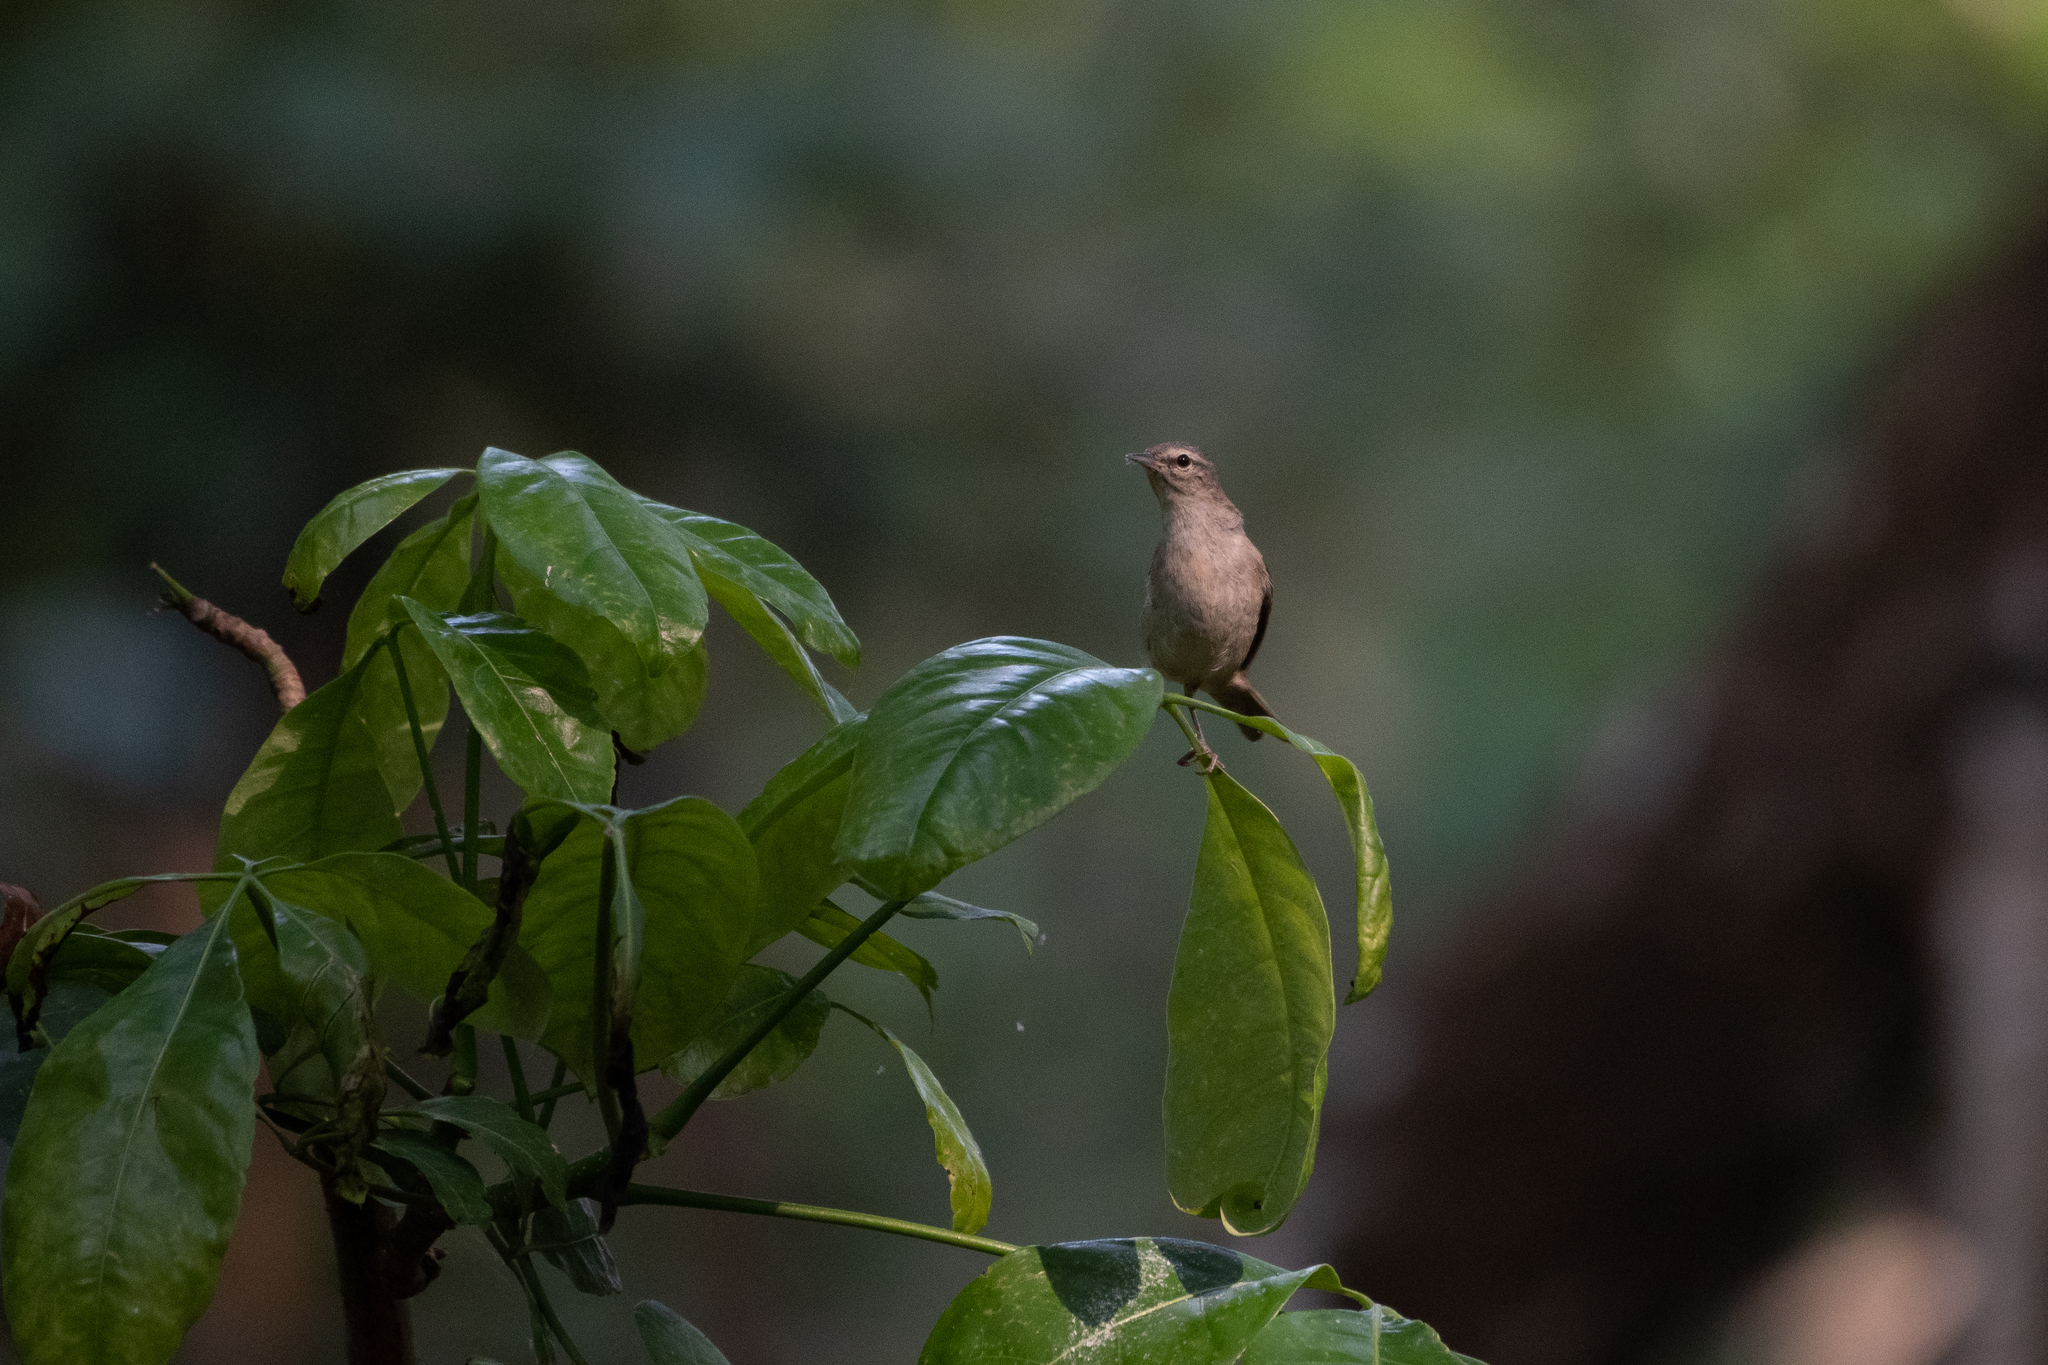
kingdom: Animalia
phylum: Chordata
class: Aves
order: Passeriformes
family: Parulidae
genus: Leiothlypis
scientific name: Leiothlypis peregrina
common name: Tennessee warbler
